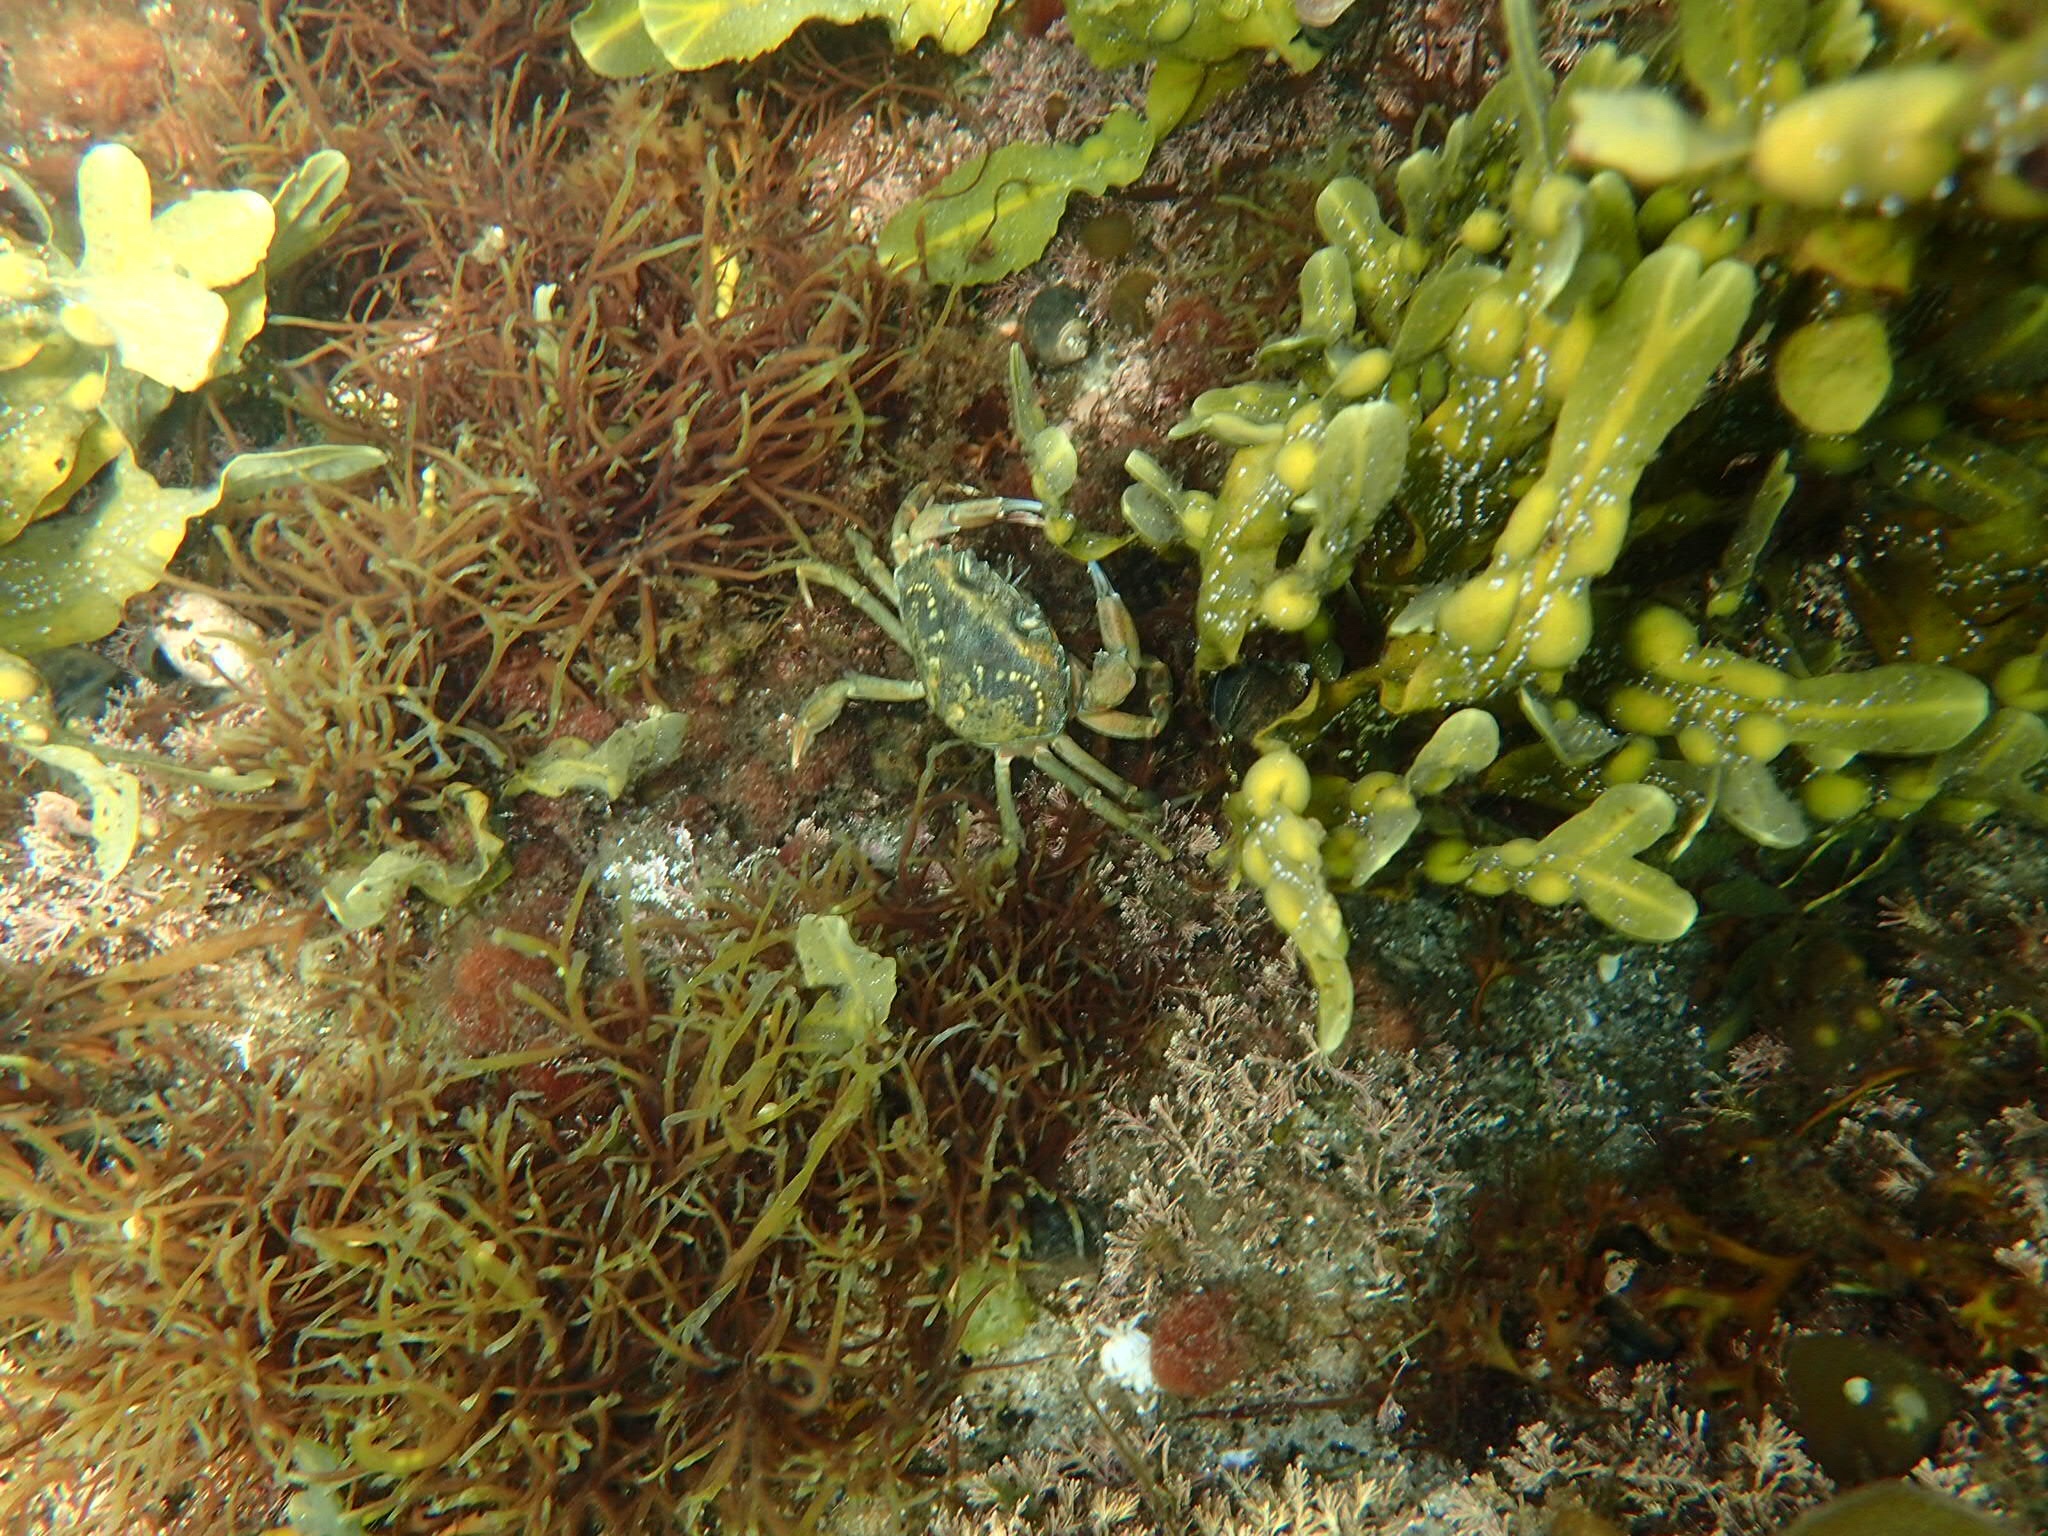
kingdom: Animalia
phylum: Arthropoda
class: Malacostraca
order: Decapoda
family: Carcinidae
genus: Carcinus
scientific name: Carcinus maenas
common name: European green crab
